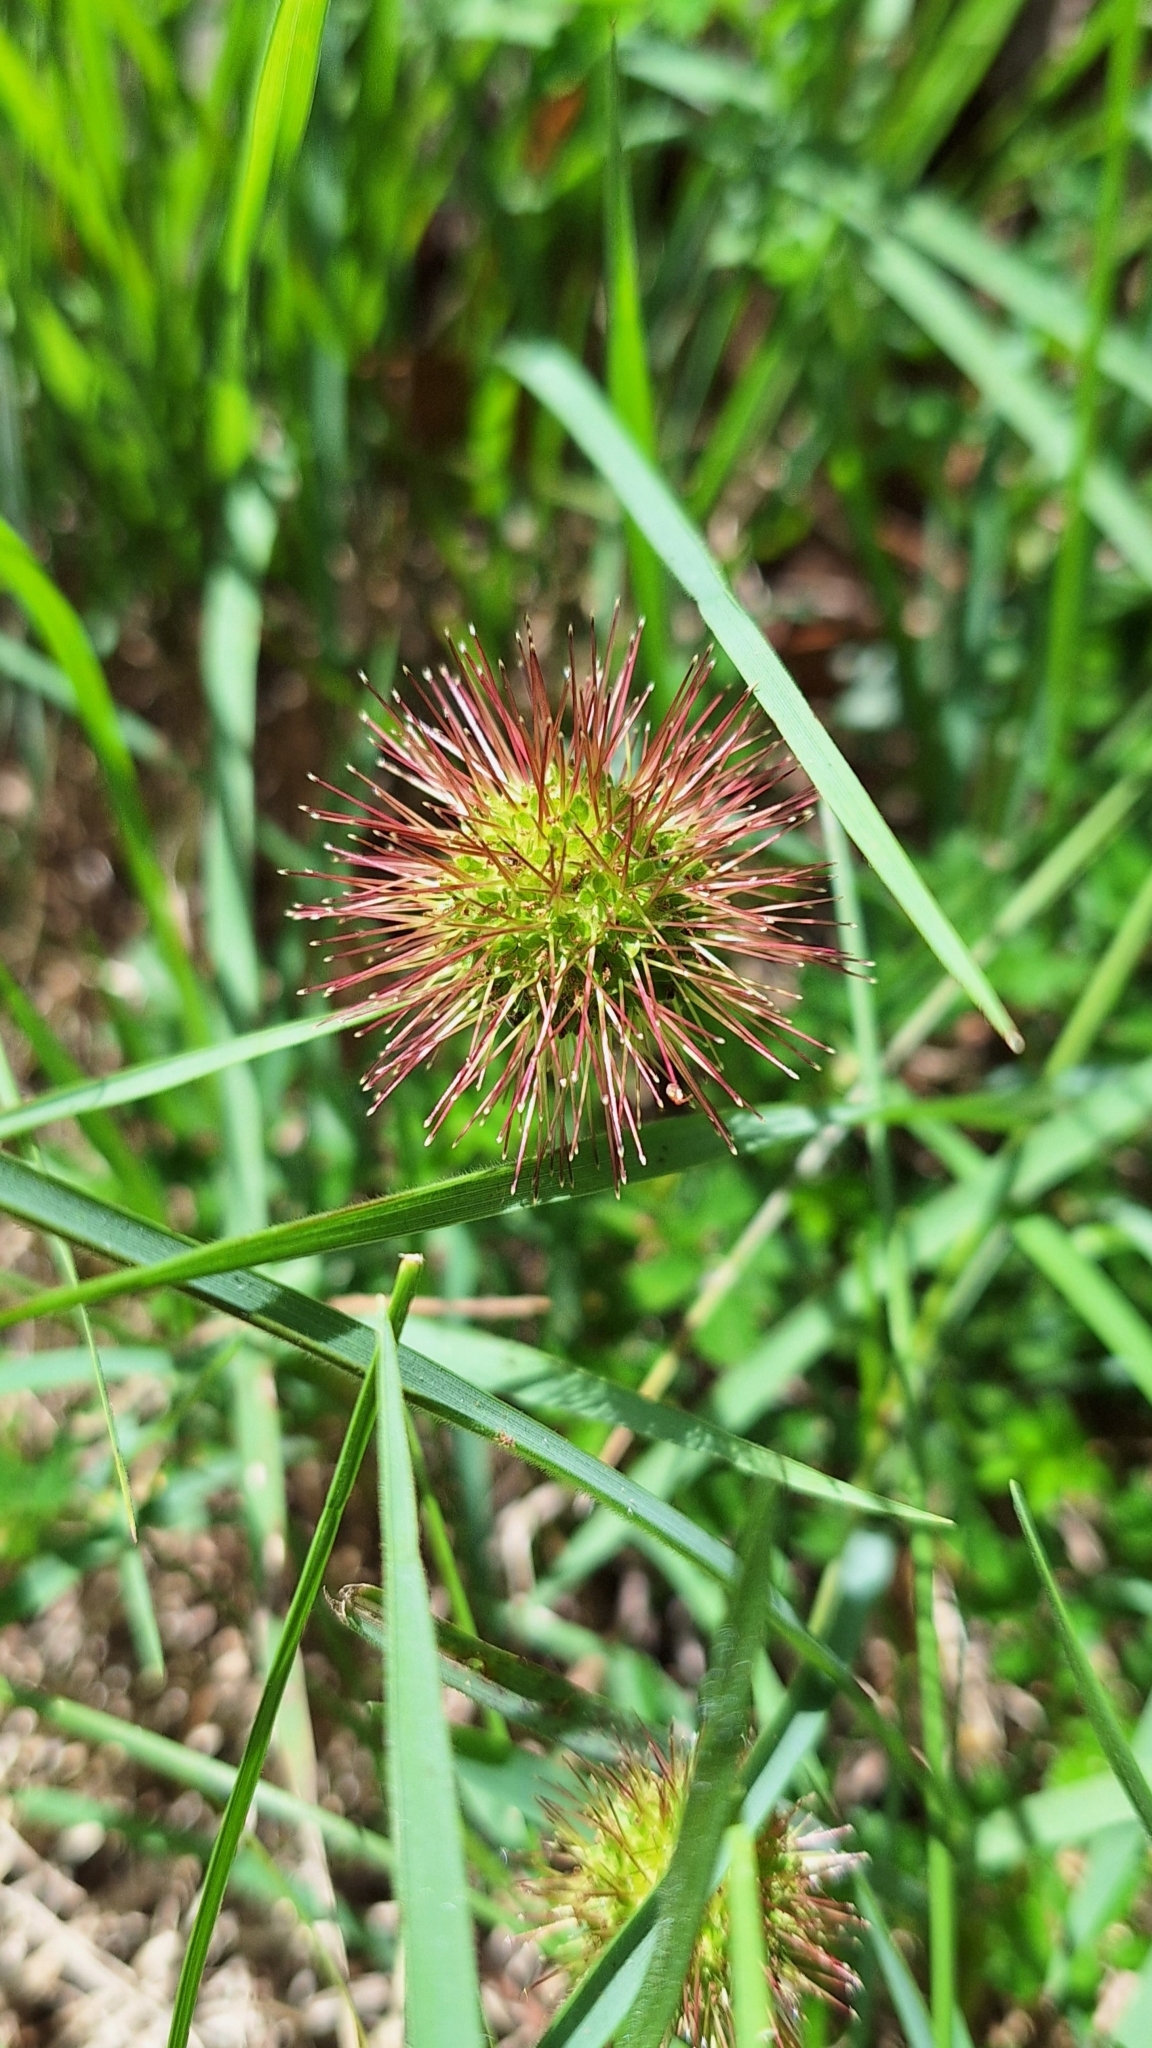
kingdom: Plantae
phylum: Tracheophyta
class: Magnoliopsida
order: Rosales
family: Rosaceae
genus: Acaena
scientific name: Acaena novae-zelandiae
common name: Pirri-pirri-bur
